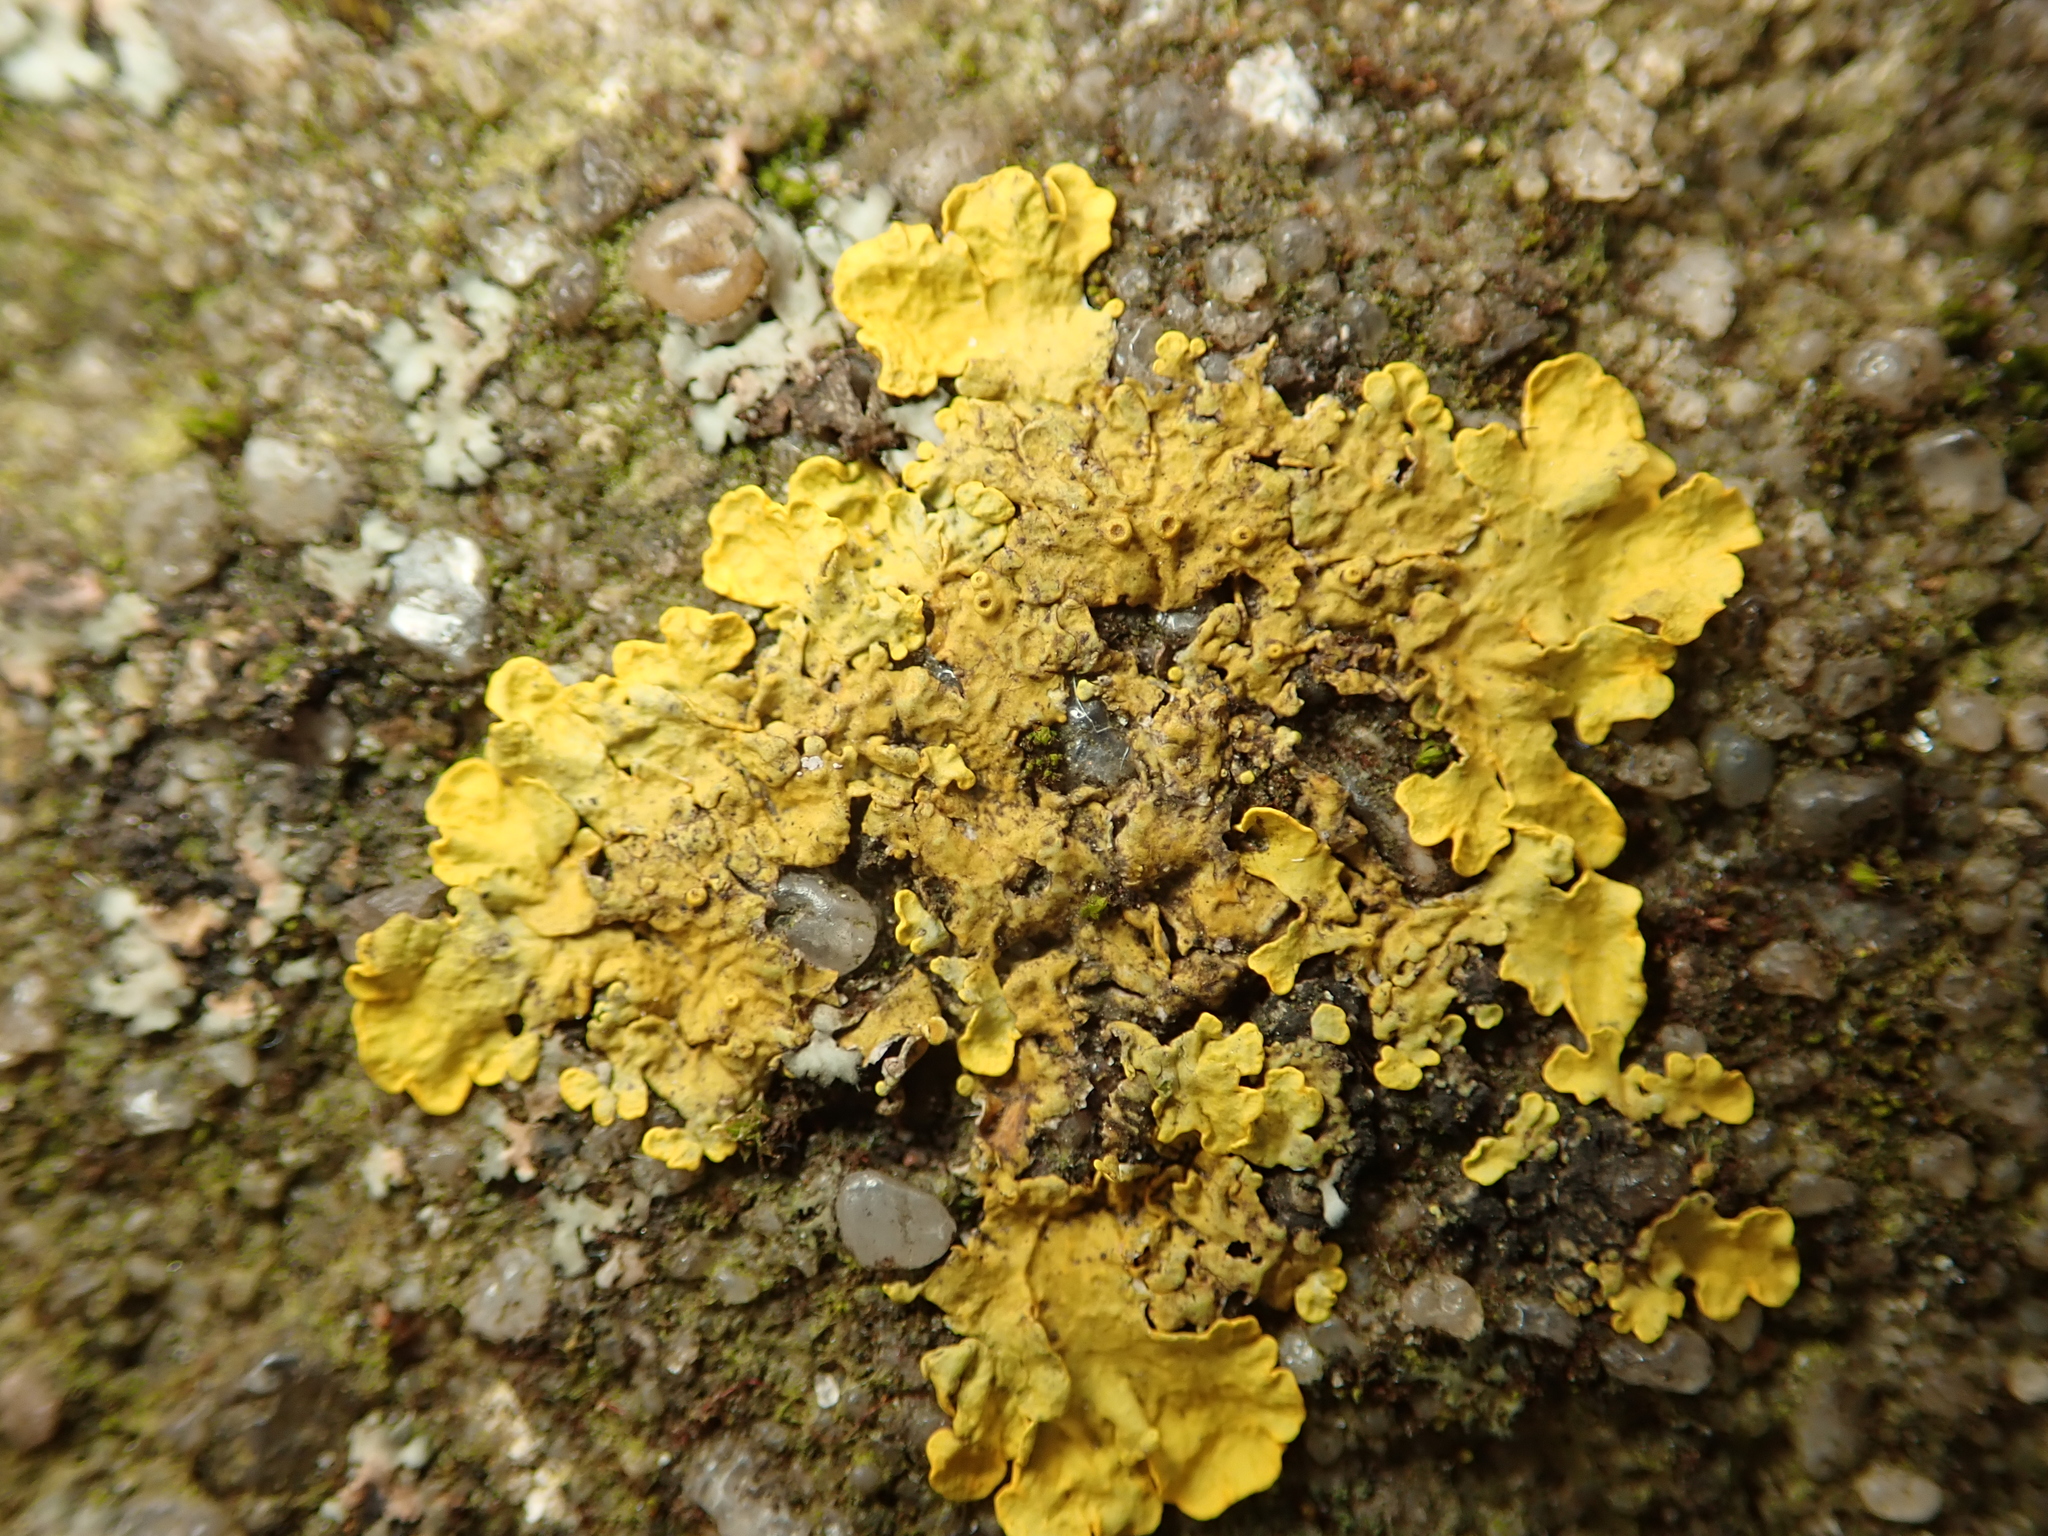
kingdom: Fungi
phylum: Ascomycota
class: Lecanoromycetes
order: Teloschistales
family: Teloschistaceae
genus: Xanthoria
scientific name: Xanthoria parietina
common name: Common orange lichen
